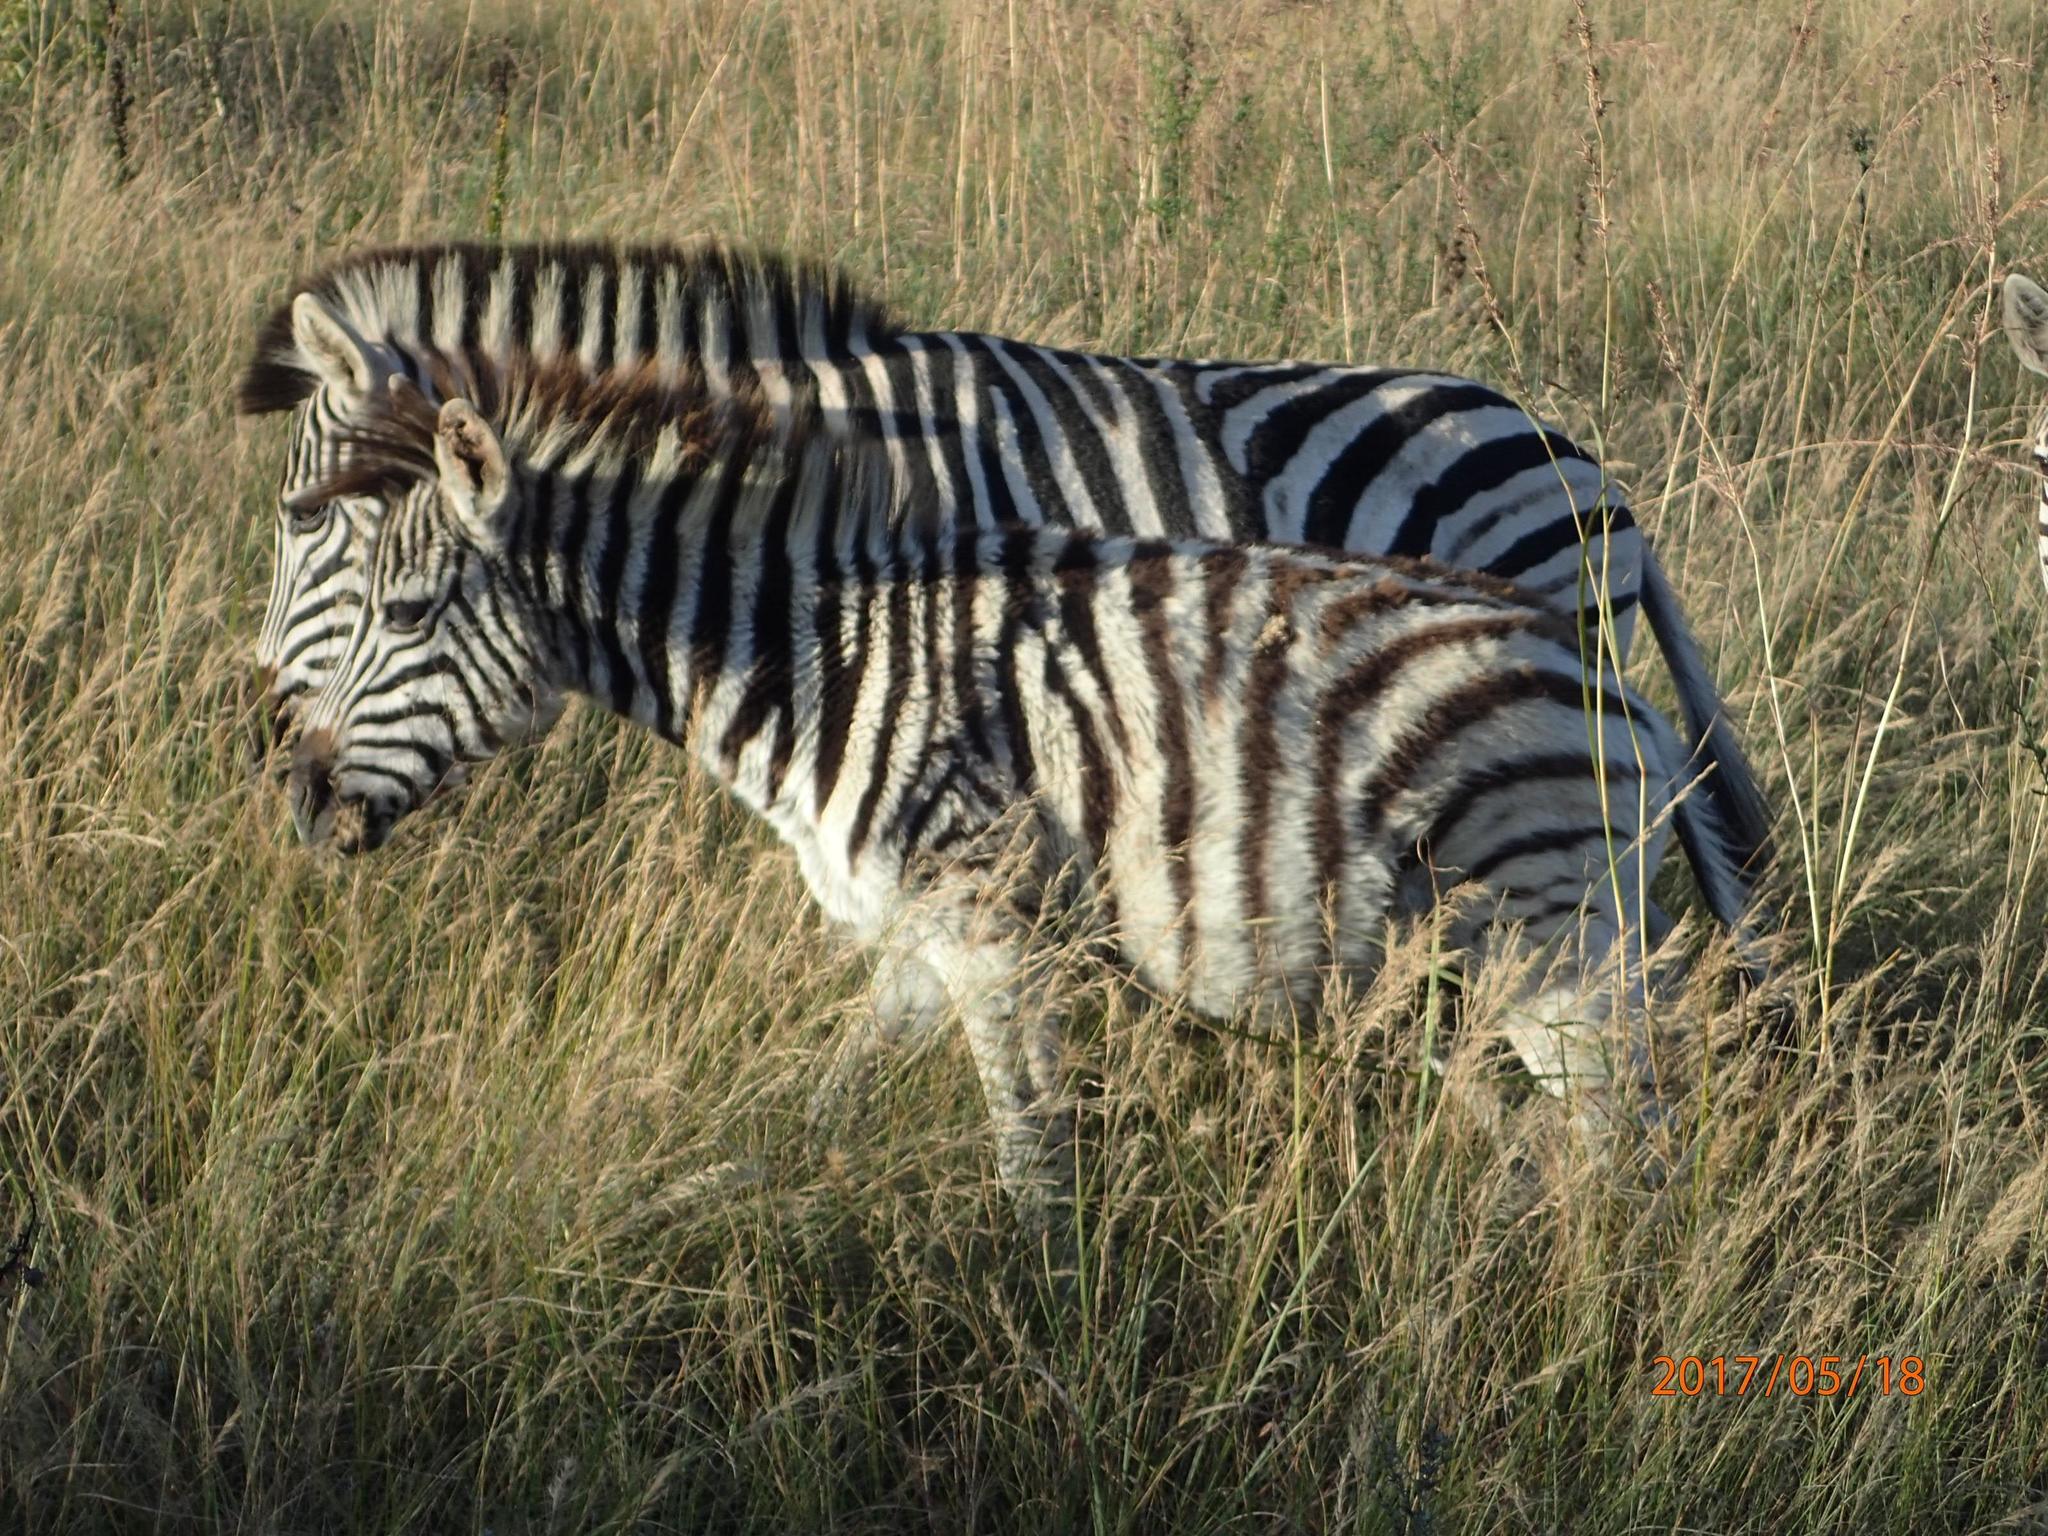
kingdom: Animalia
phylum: Chordata
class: Mammalia
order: Perissodactyla
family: Equidae
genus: Equus
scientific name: Equus quagga
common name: Plains zebra
